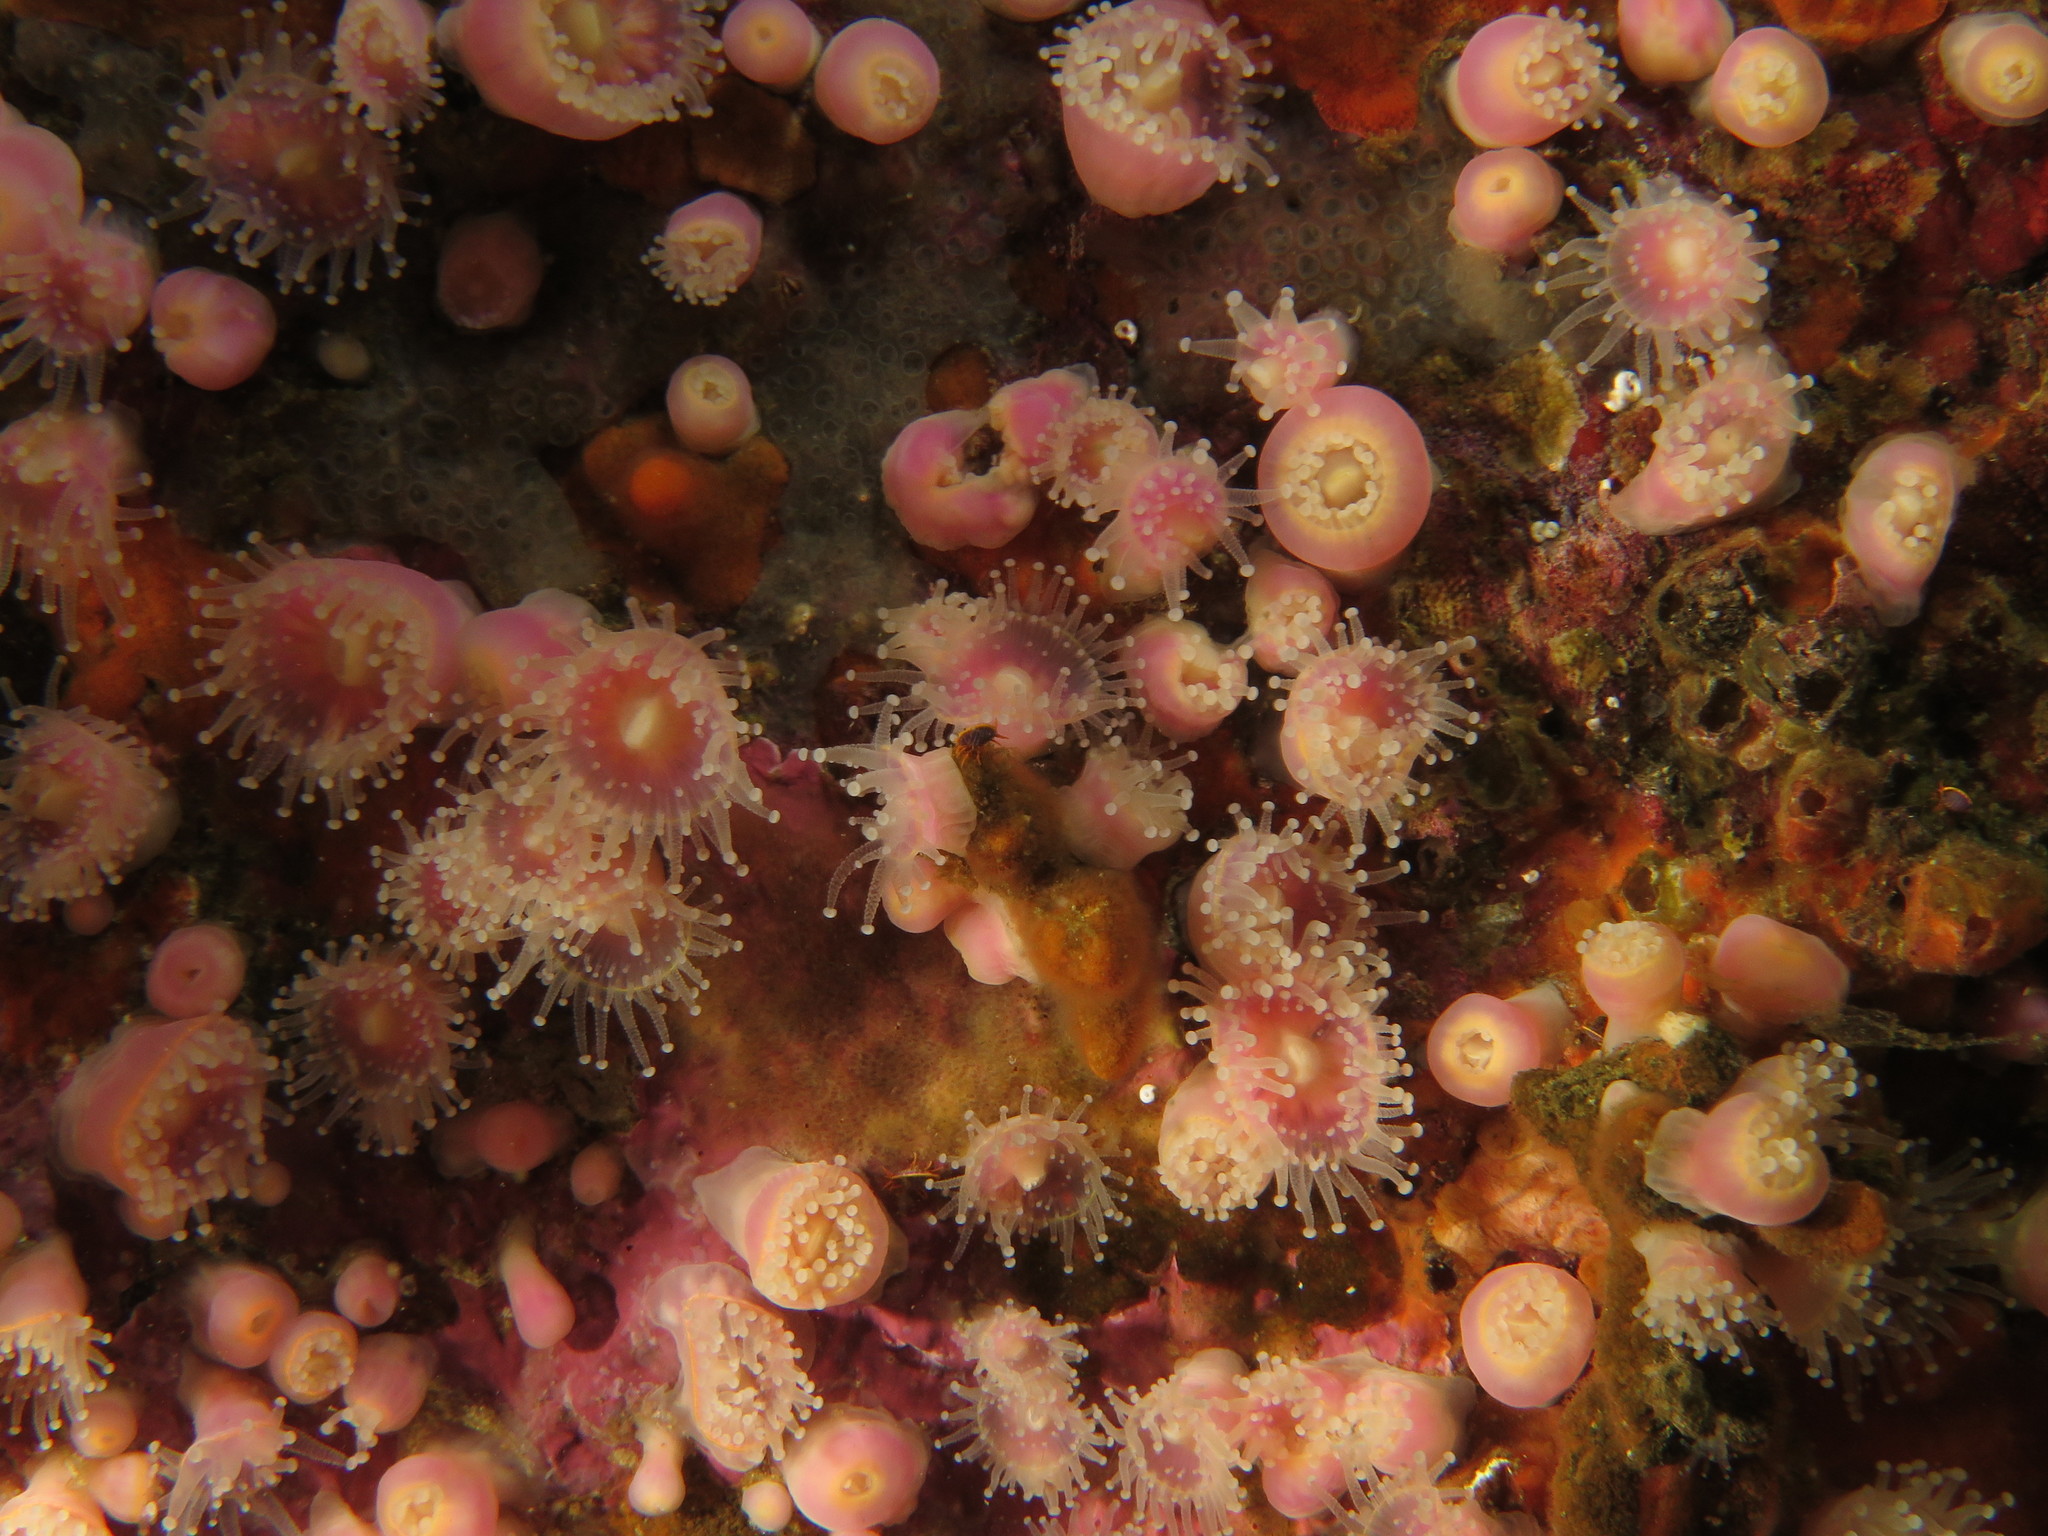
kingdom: Animalia
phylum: Cnidaria
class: Anthozoa
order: Corallimorpharia
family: Corallimorphidae
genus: Corynactis
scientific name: Corynactis annulata
